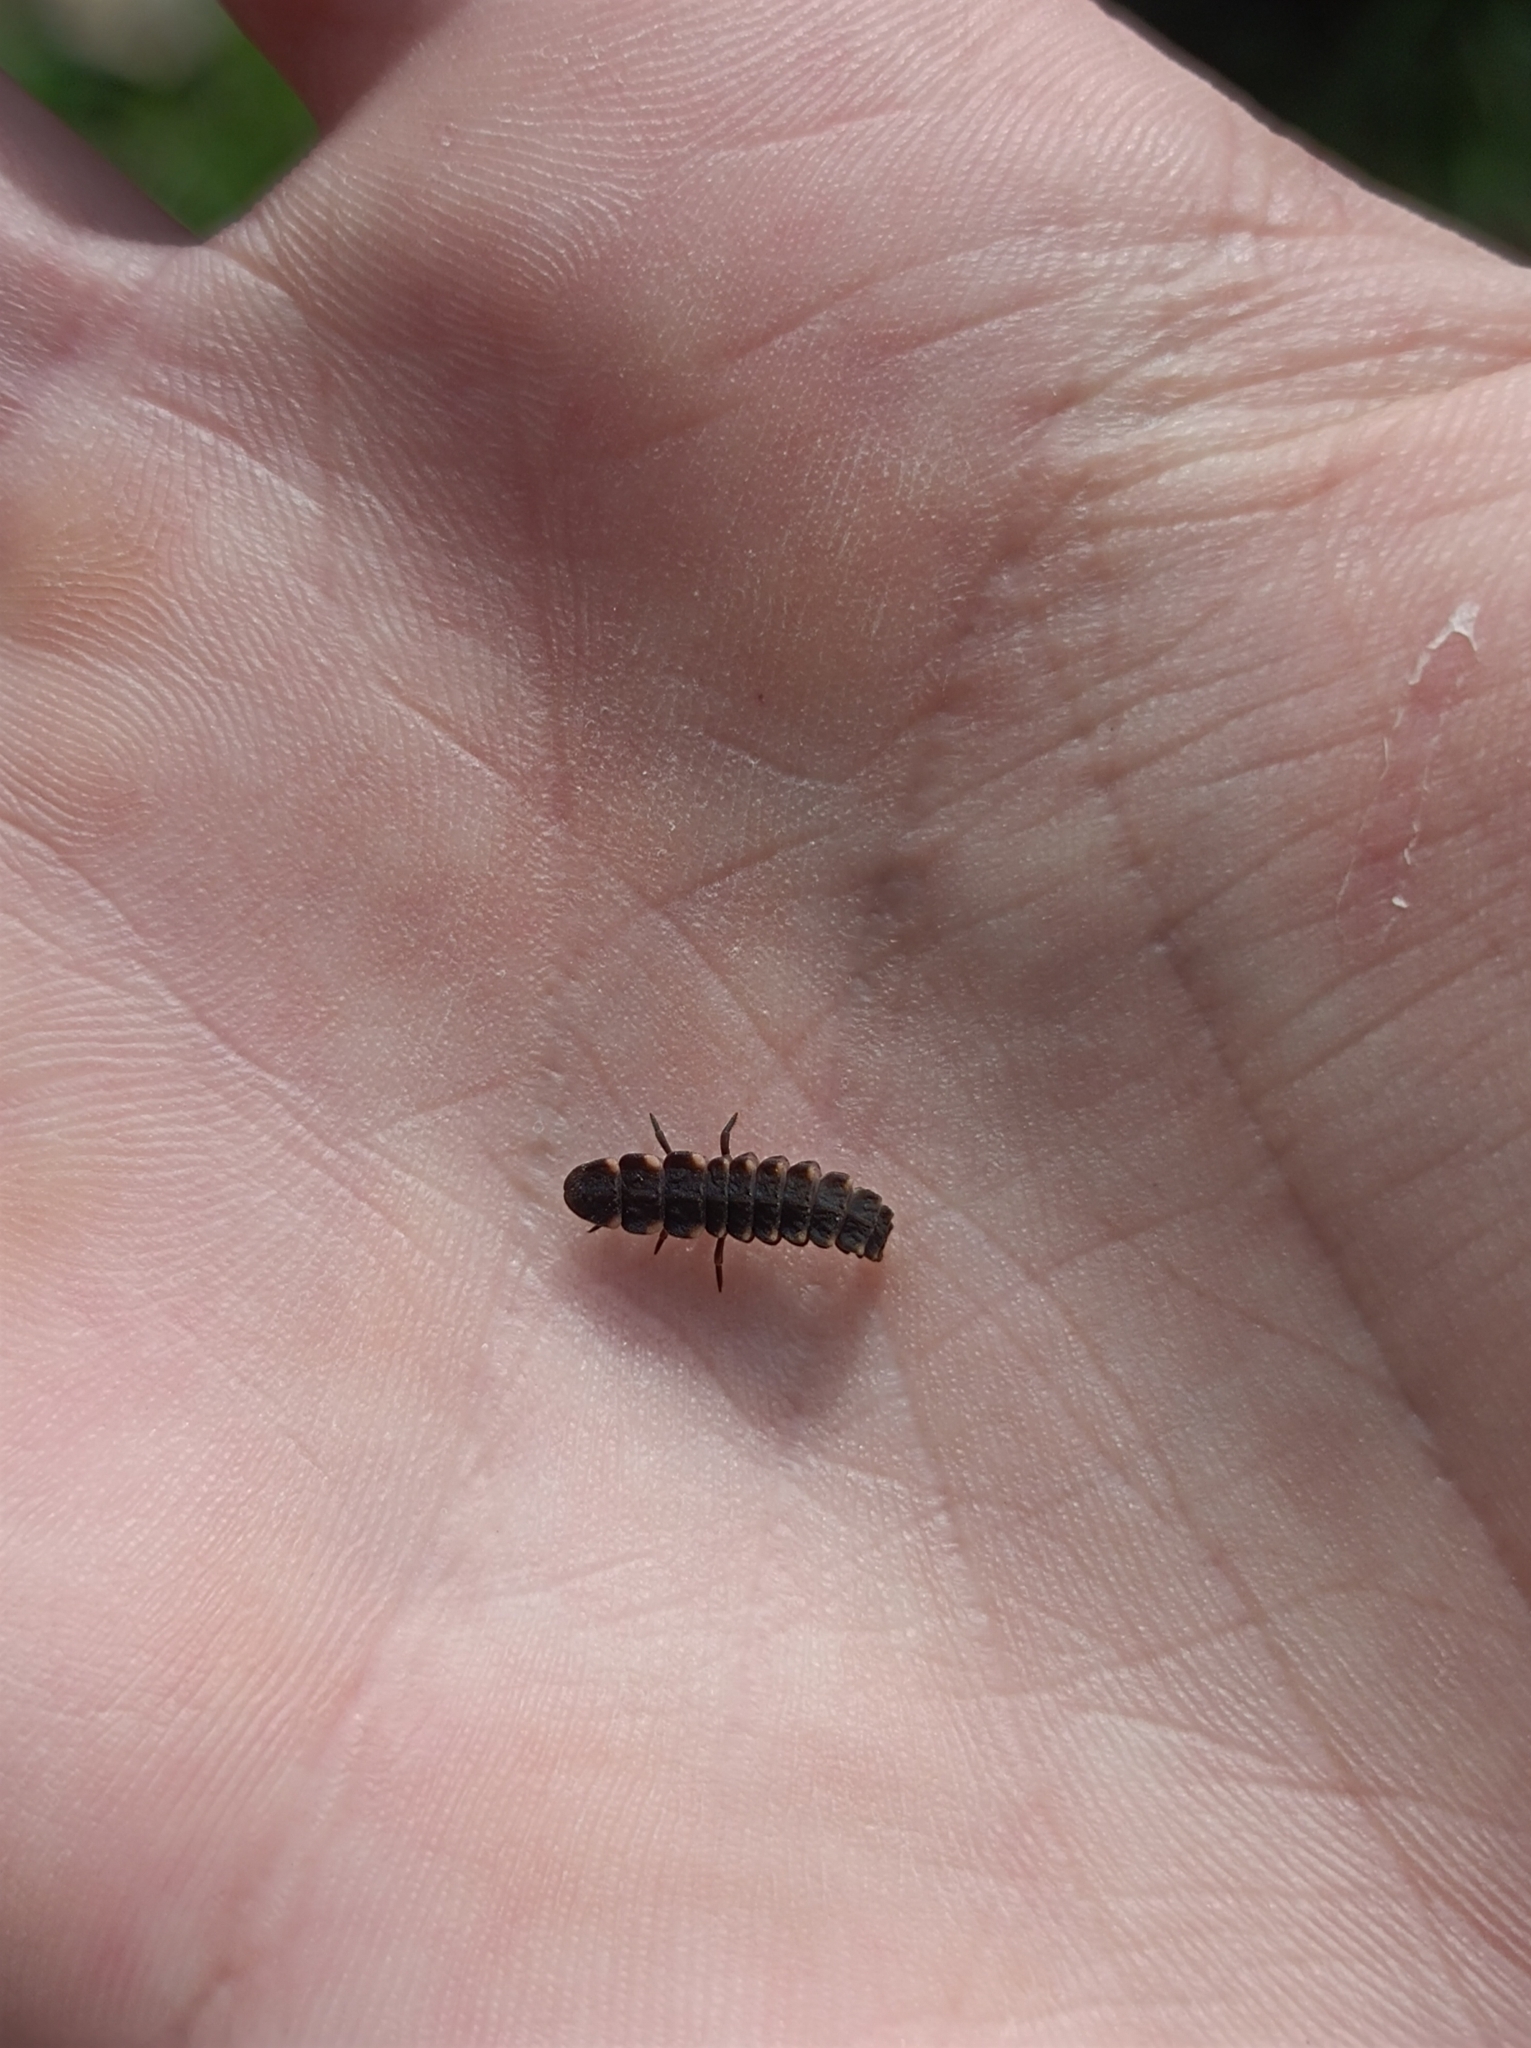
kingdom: Animalia
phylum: Arthropoda
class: Insecta
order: Coleoptera
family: Lampyridae
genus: Lampyris
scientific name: Lampyris noctiluca
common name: Glow-worm
